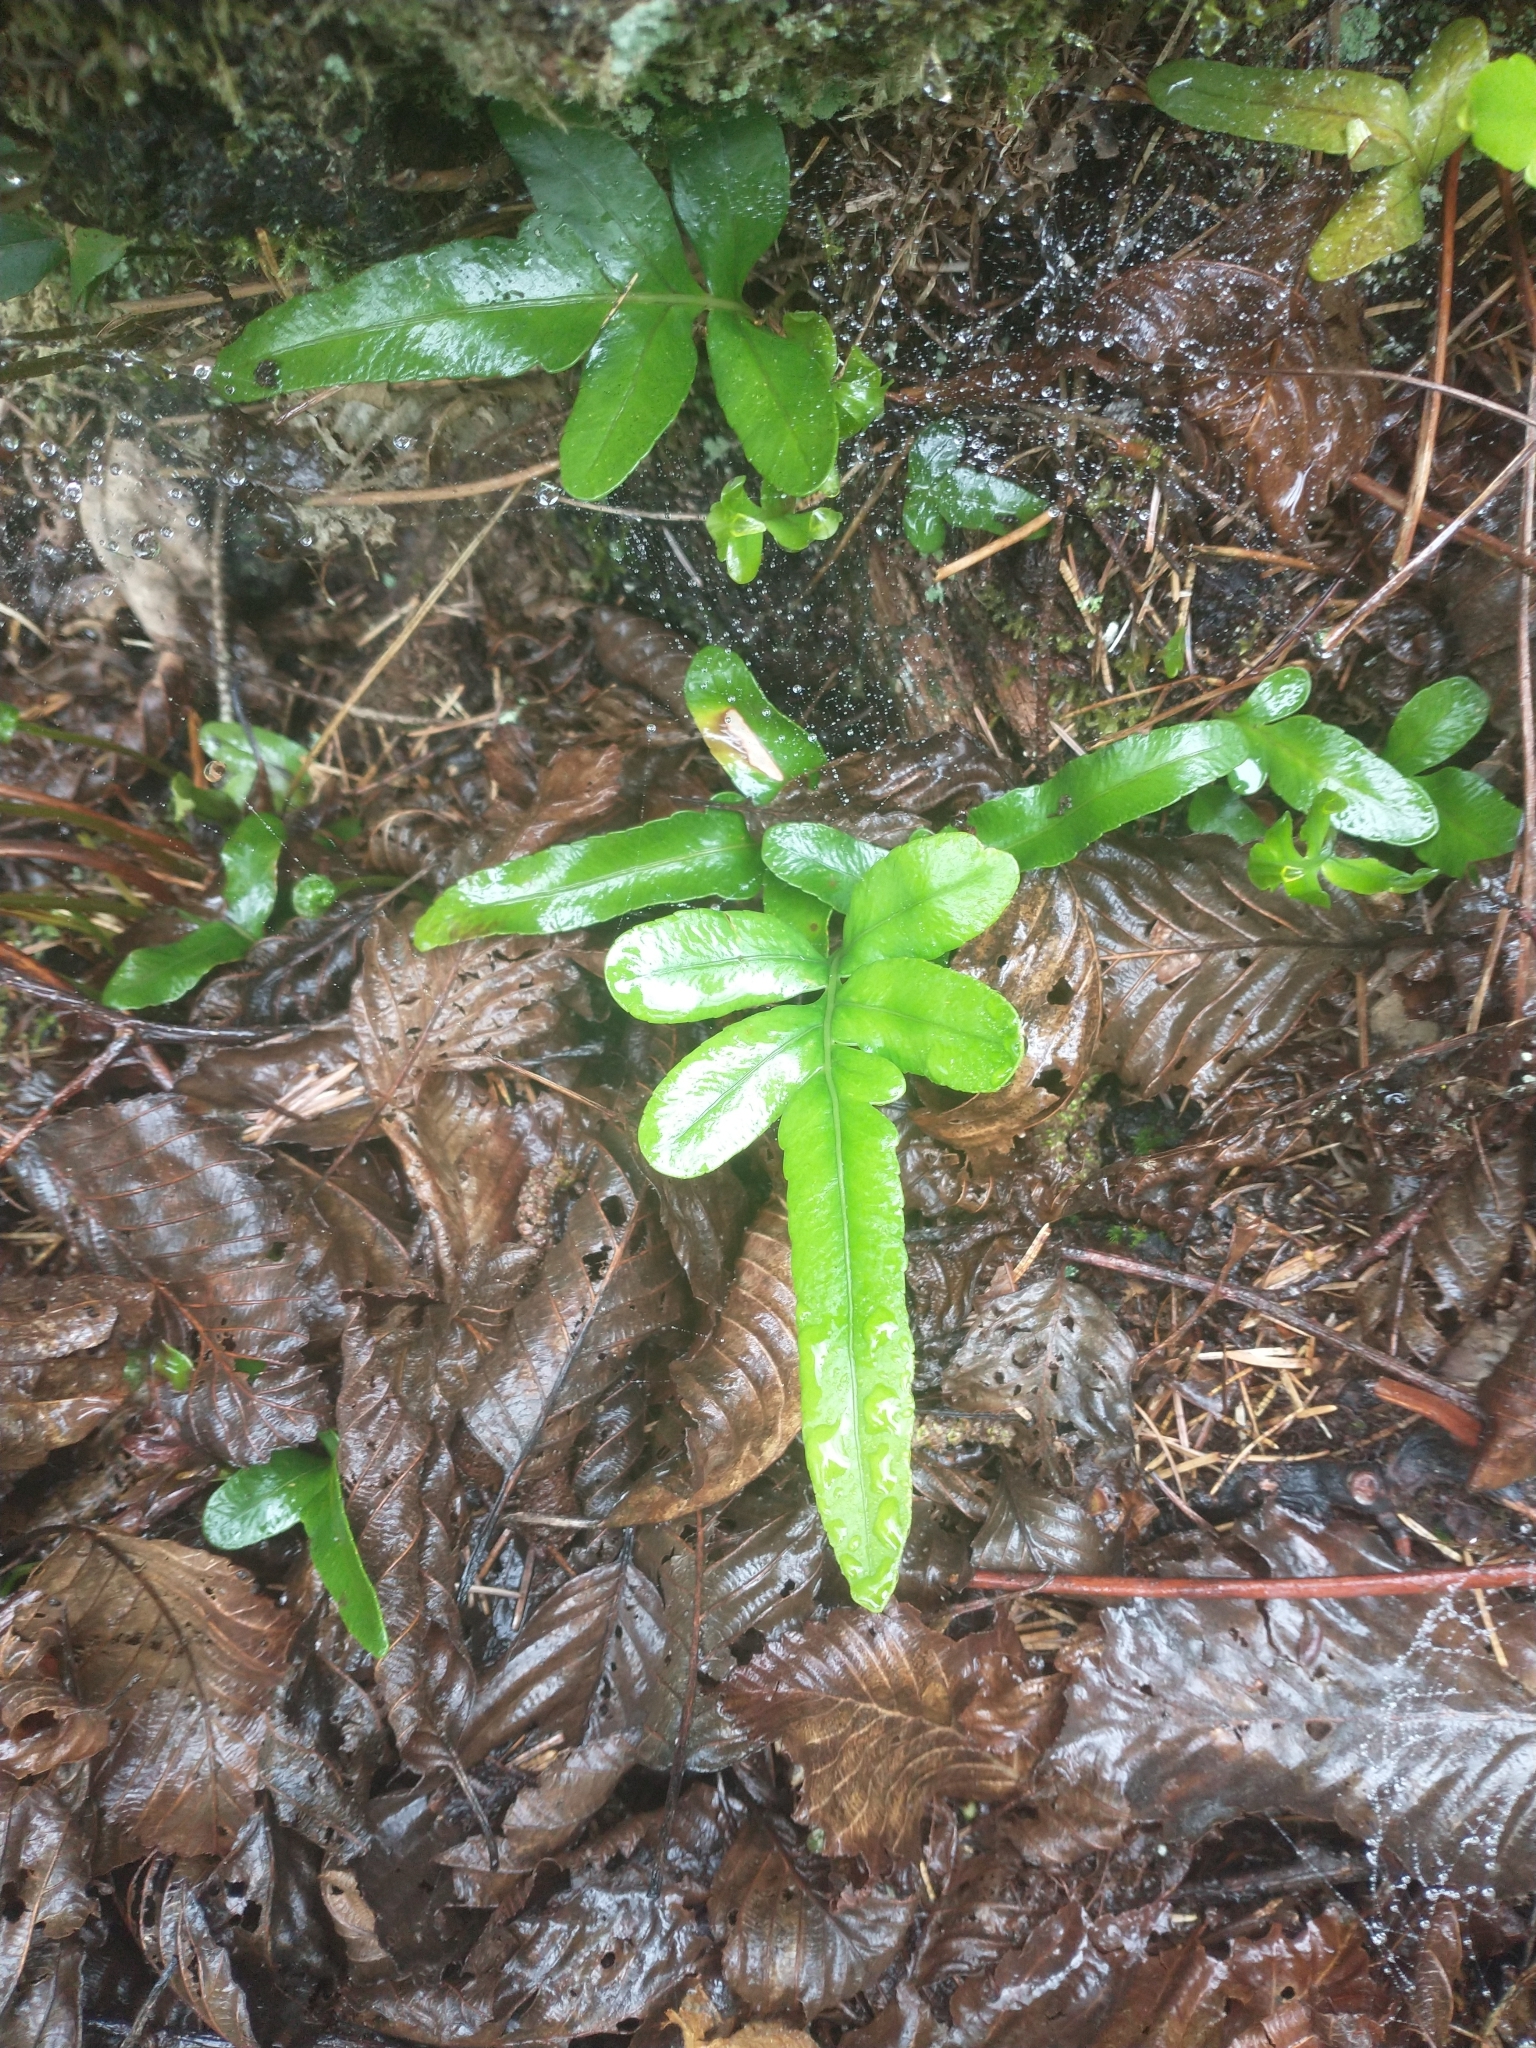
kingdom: Plantae
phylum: Tracheophyta
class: Polypodiopsida
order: Polypodiales
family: Polypodiaceae
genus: Polypodium
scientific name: Polypodium scouleri
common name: Scouler's polypody
